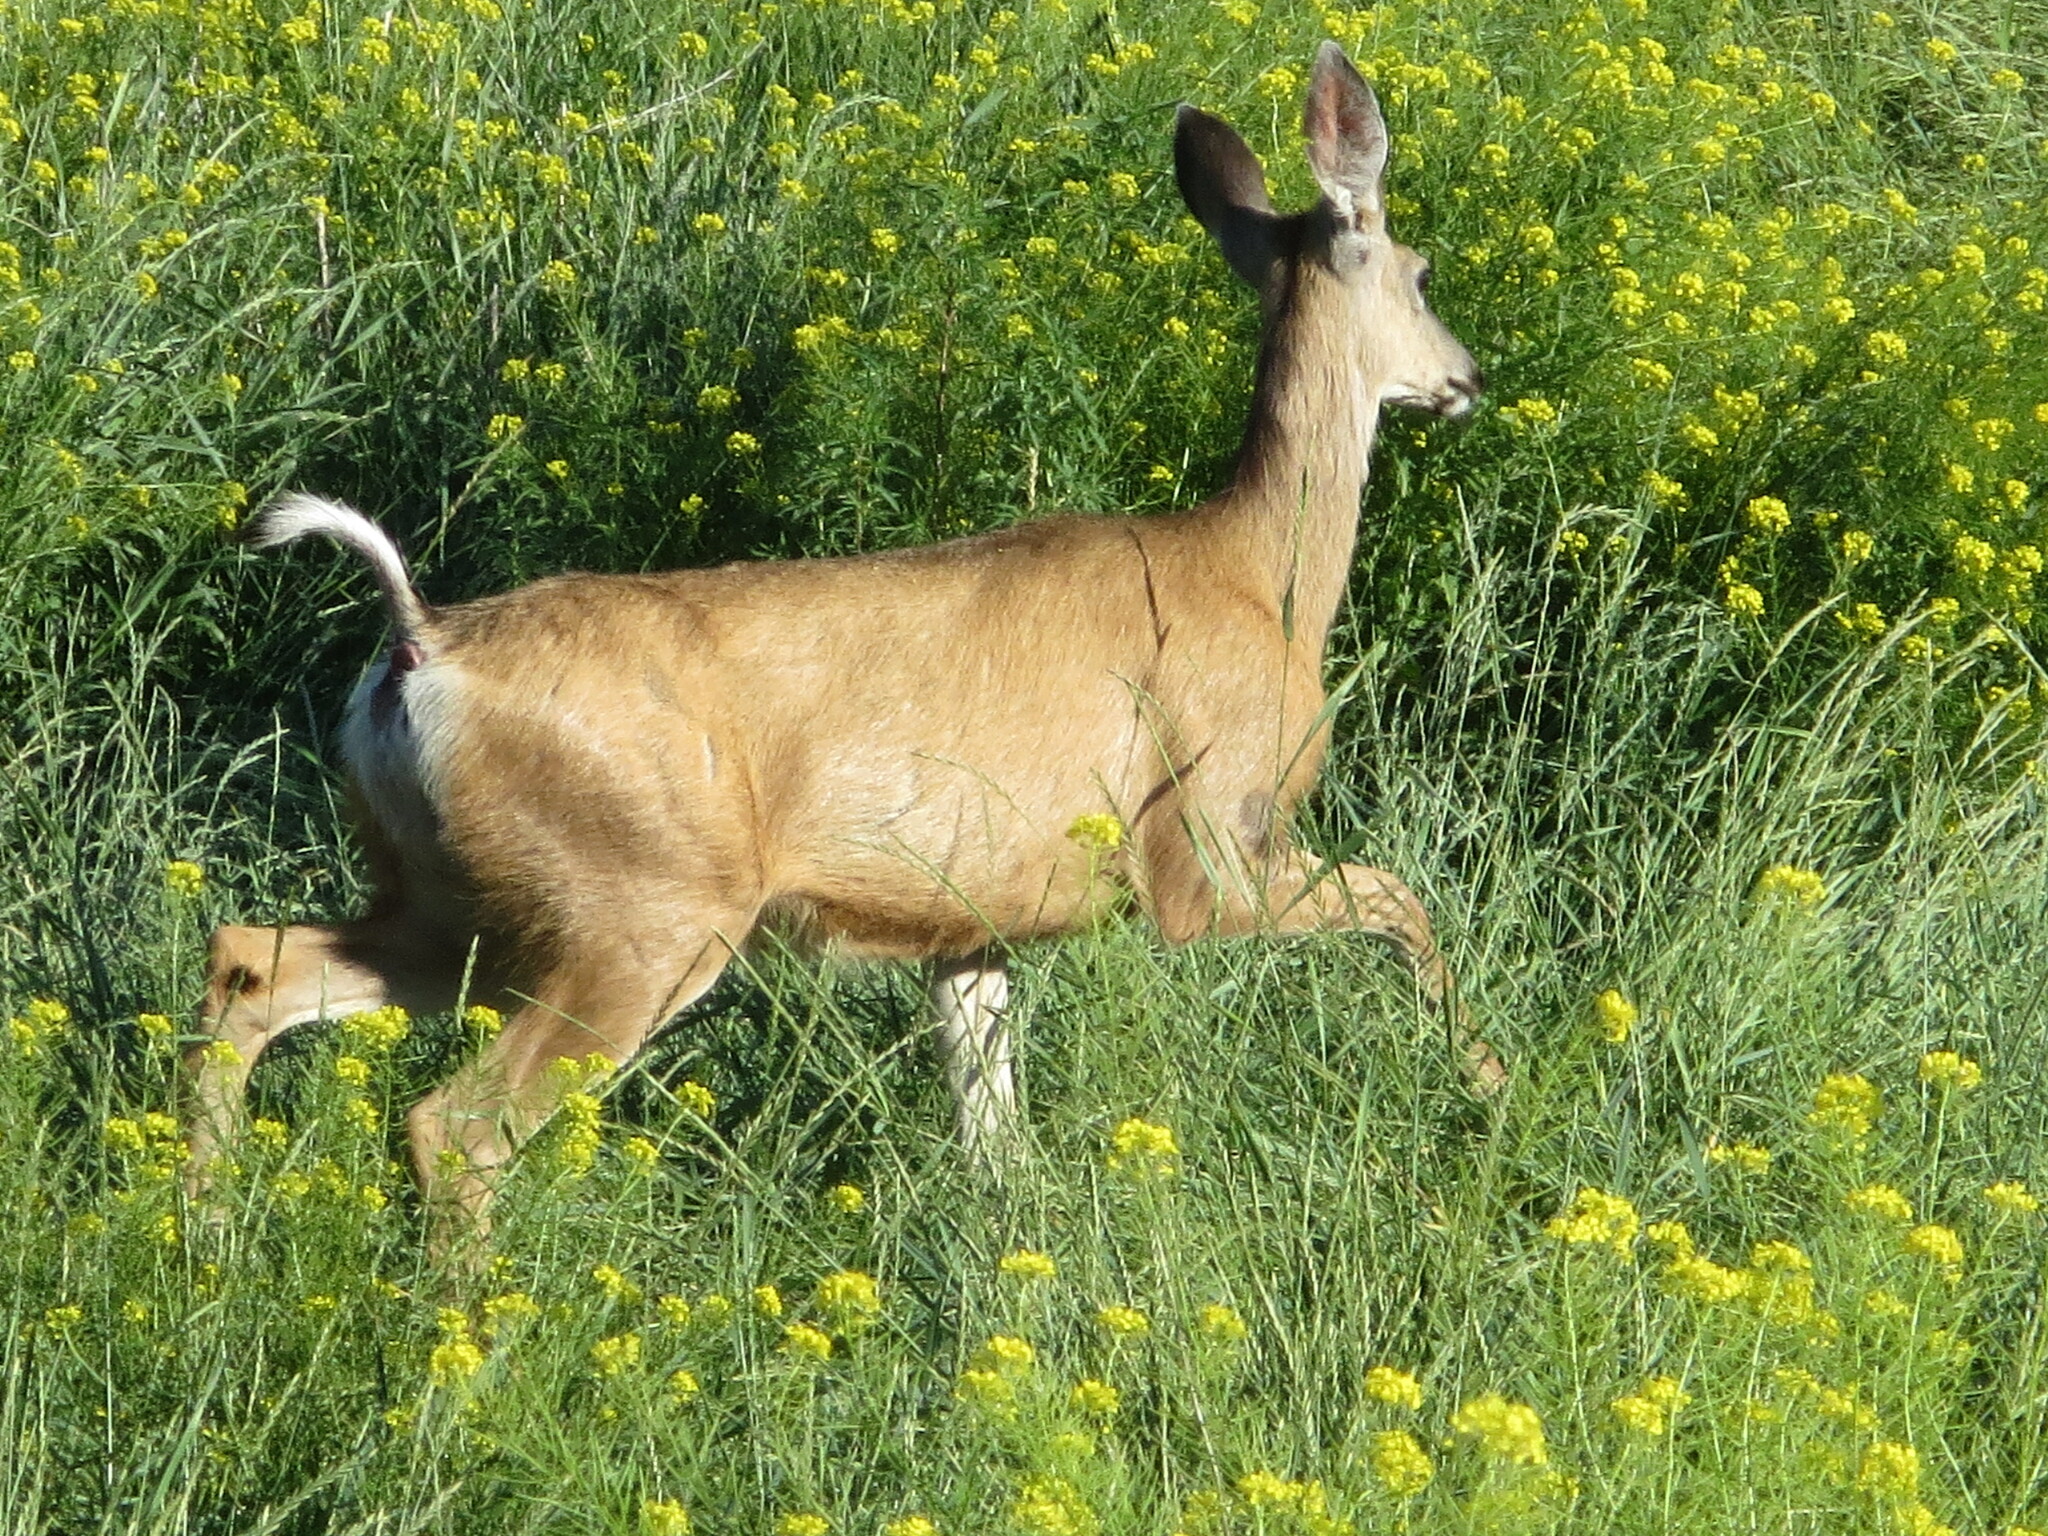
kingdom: Animalia
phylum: Chordata
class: Mammalia
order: Artiodactyla
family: Cervidae
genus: Odocoileus
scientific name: Odocoileus hemionus
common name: Mule deer
